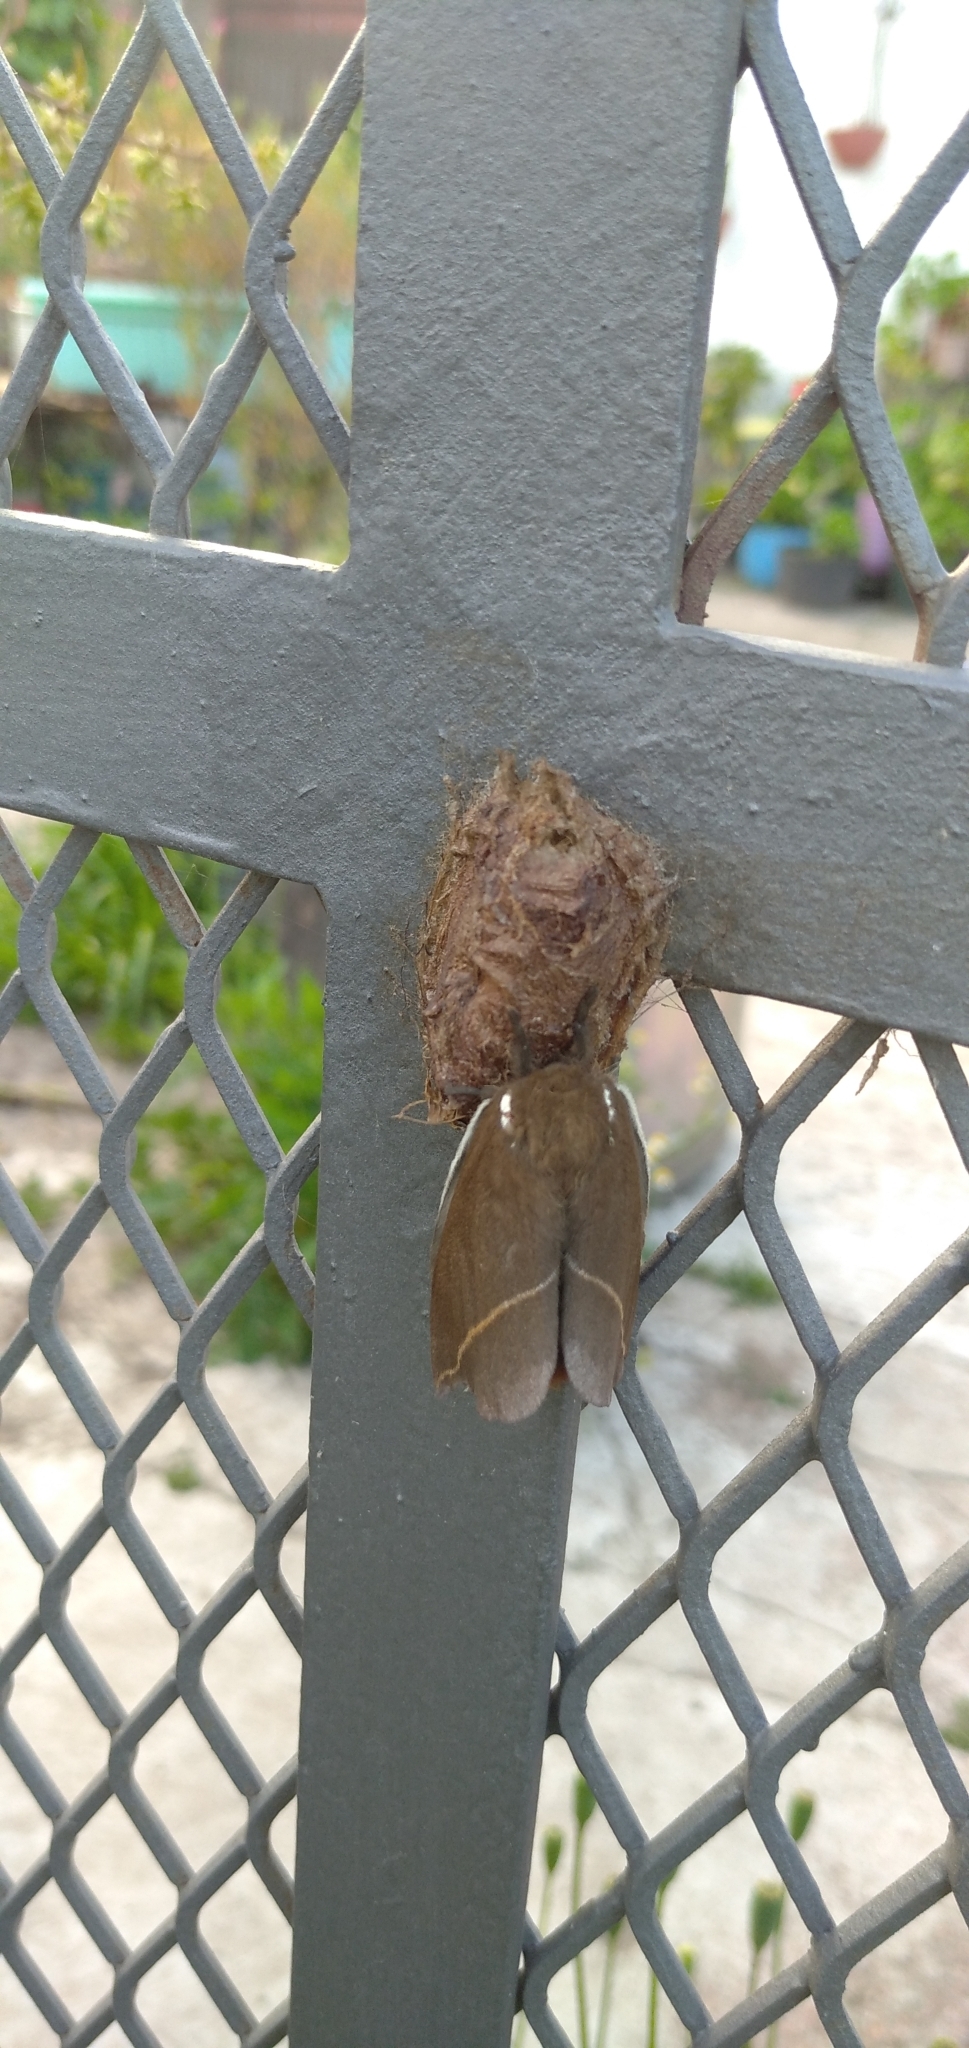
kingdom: Animalia
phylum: Arthropoda
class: Insecta
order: Lepidoptera
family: Saturniidae
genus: Automeris
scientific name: Automeris naranja
